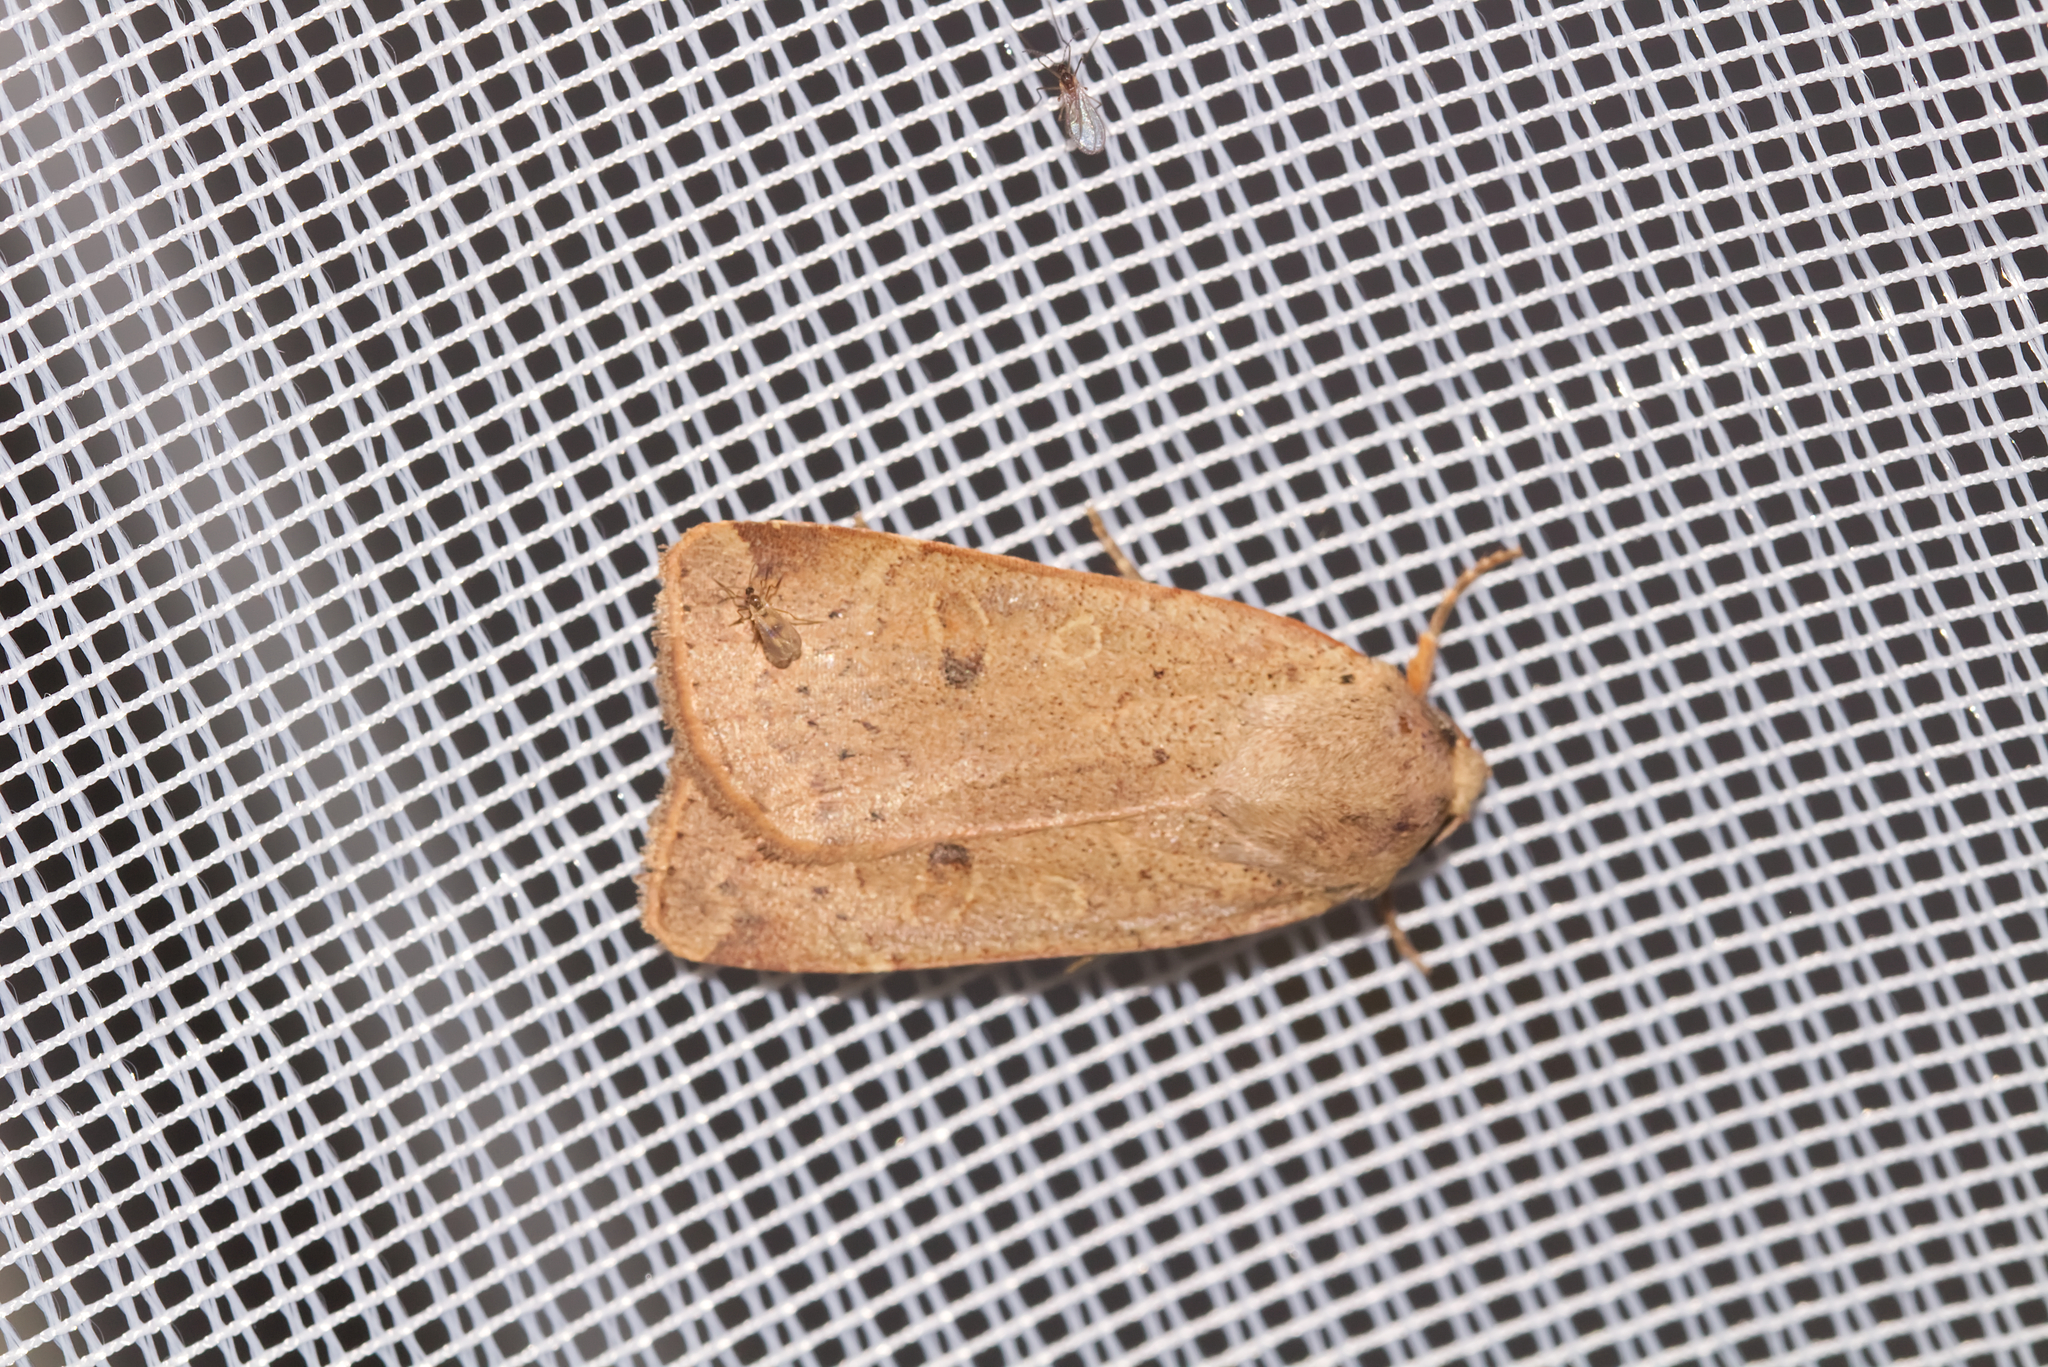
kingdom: Animalia
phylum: Arthropoda
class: Insecta
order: Lepidoptera
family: Noctuidae
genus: Noctua
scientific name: Noctua comes
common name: Lesser yellow underwing
